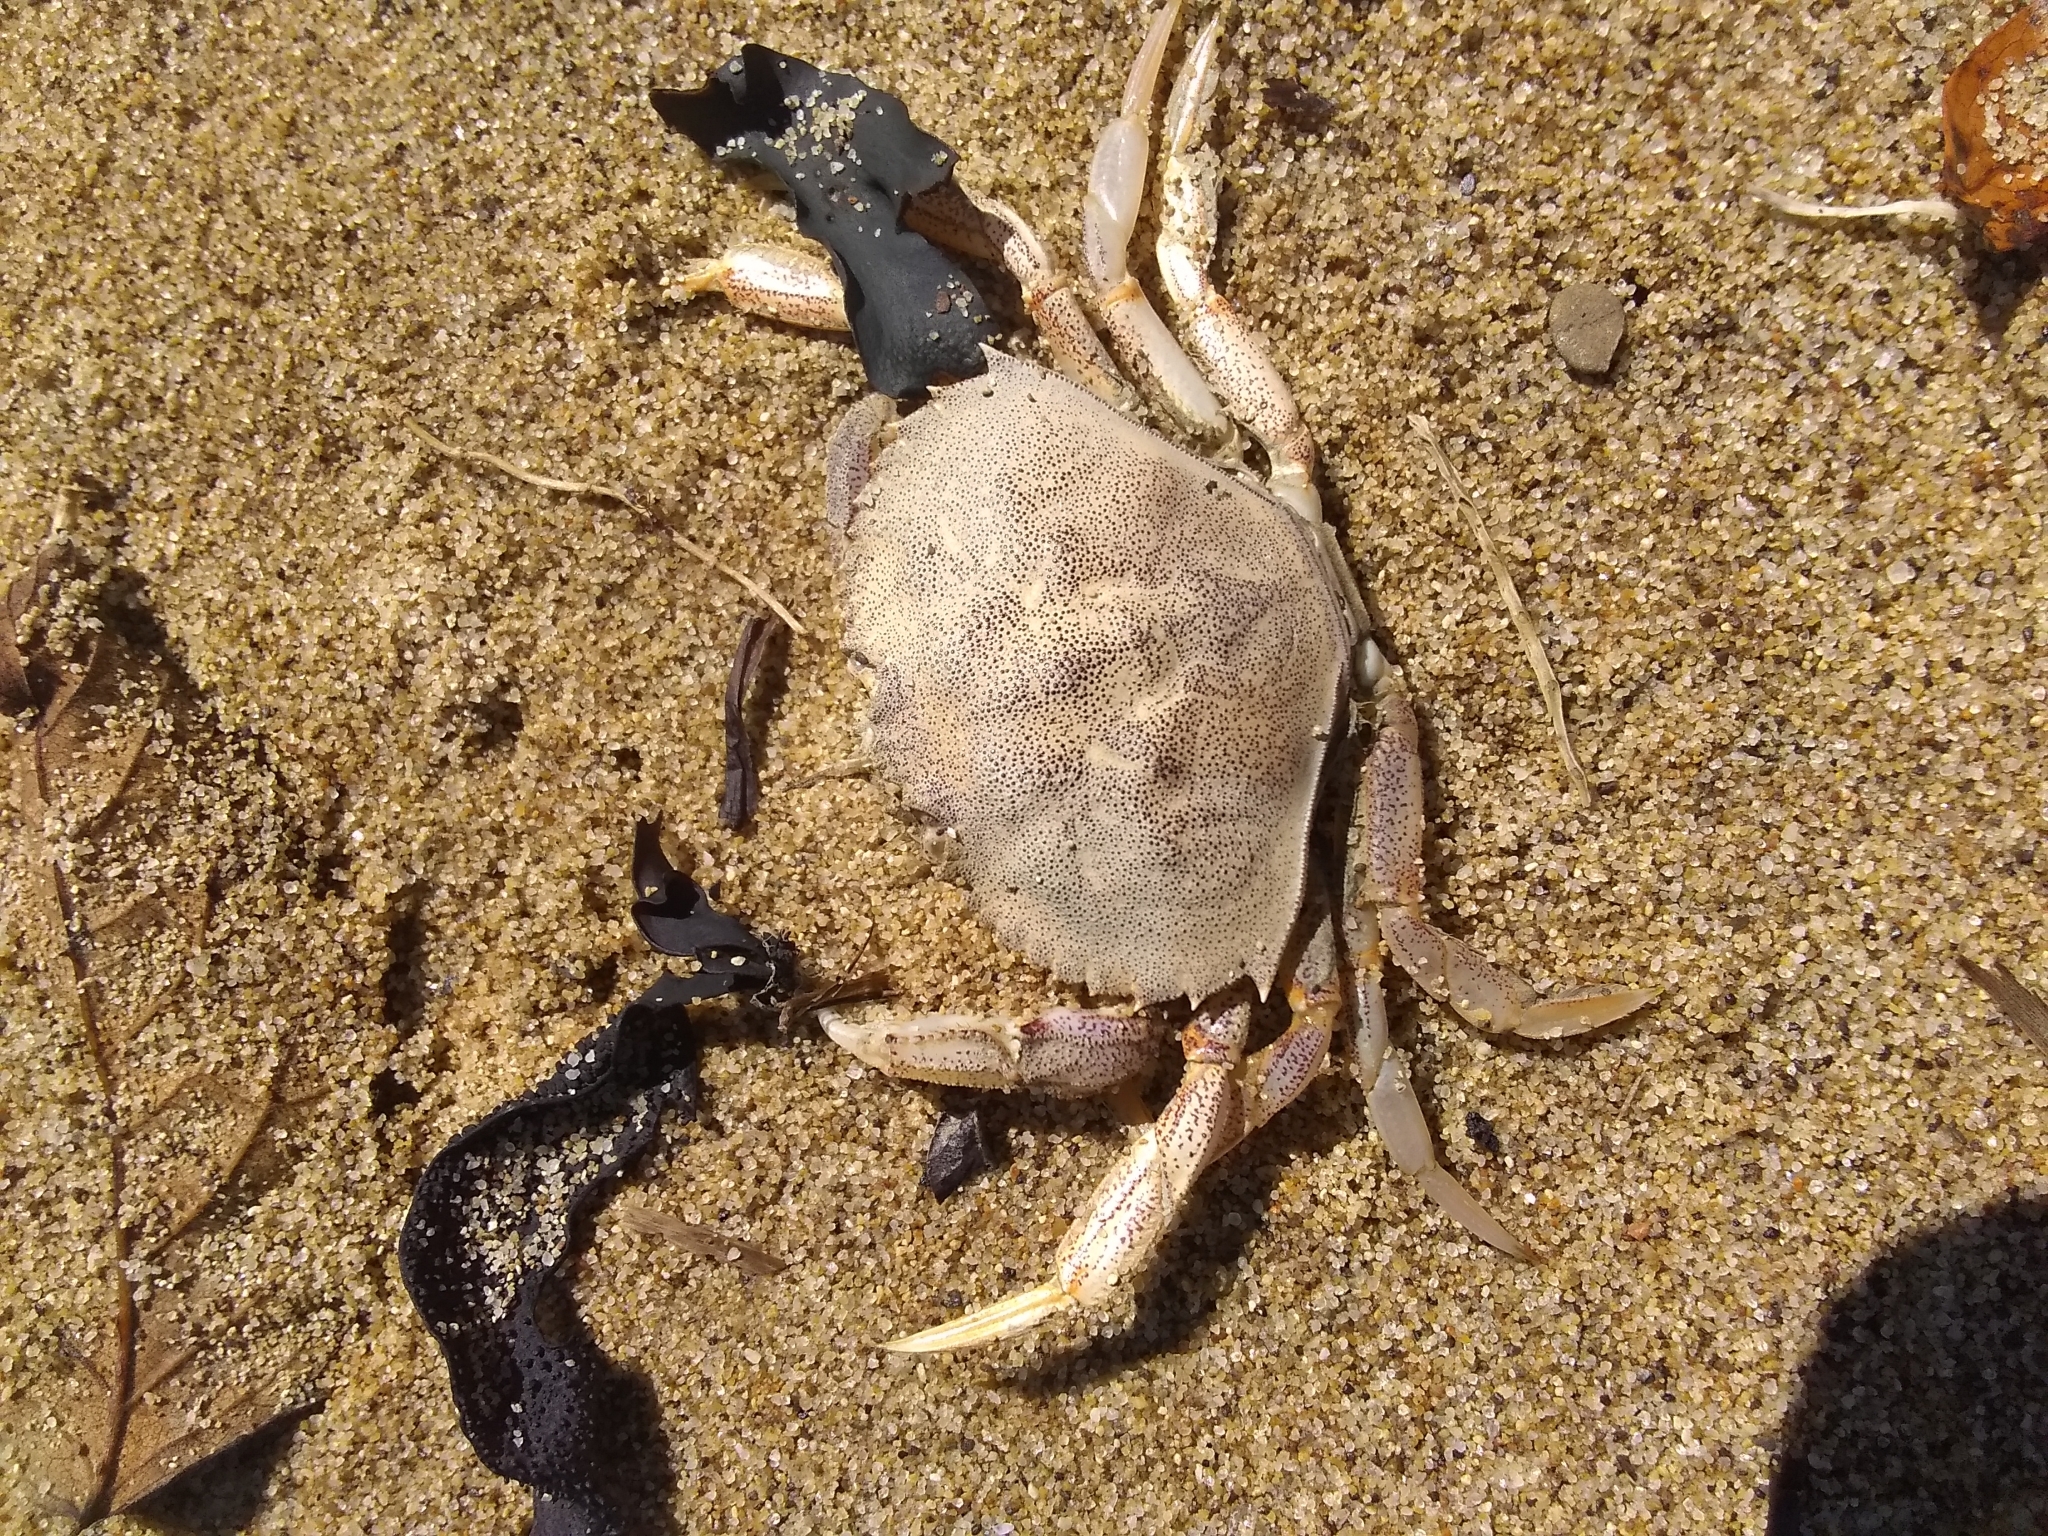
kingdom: Animalia
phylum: Arthropoda
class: Malacostraca
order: Decapoda
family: Cancridae
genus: Metacarcinus
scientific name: Metacarcinus magister
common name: Californian crab
